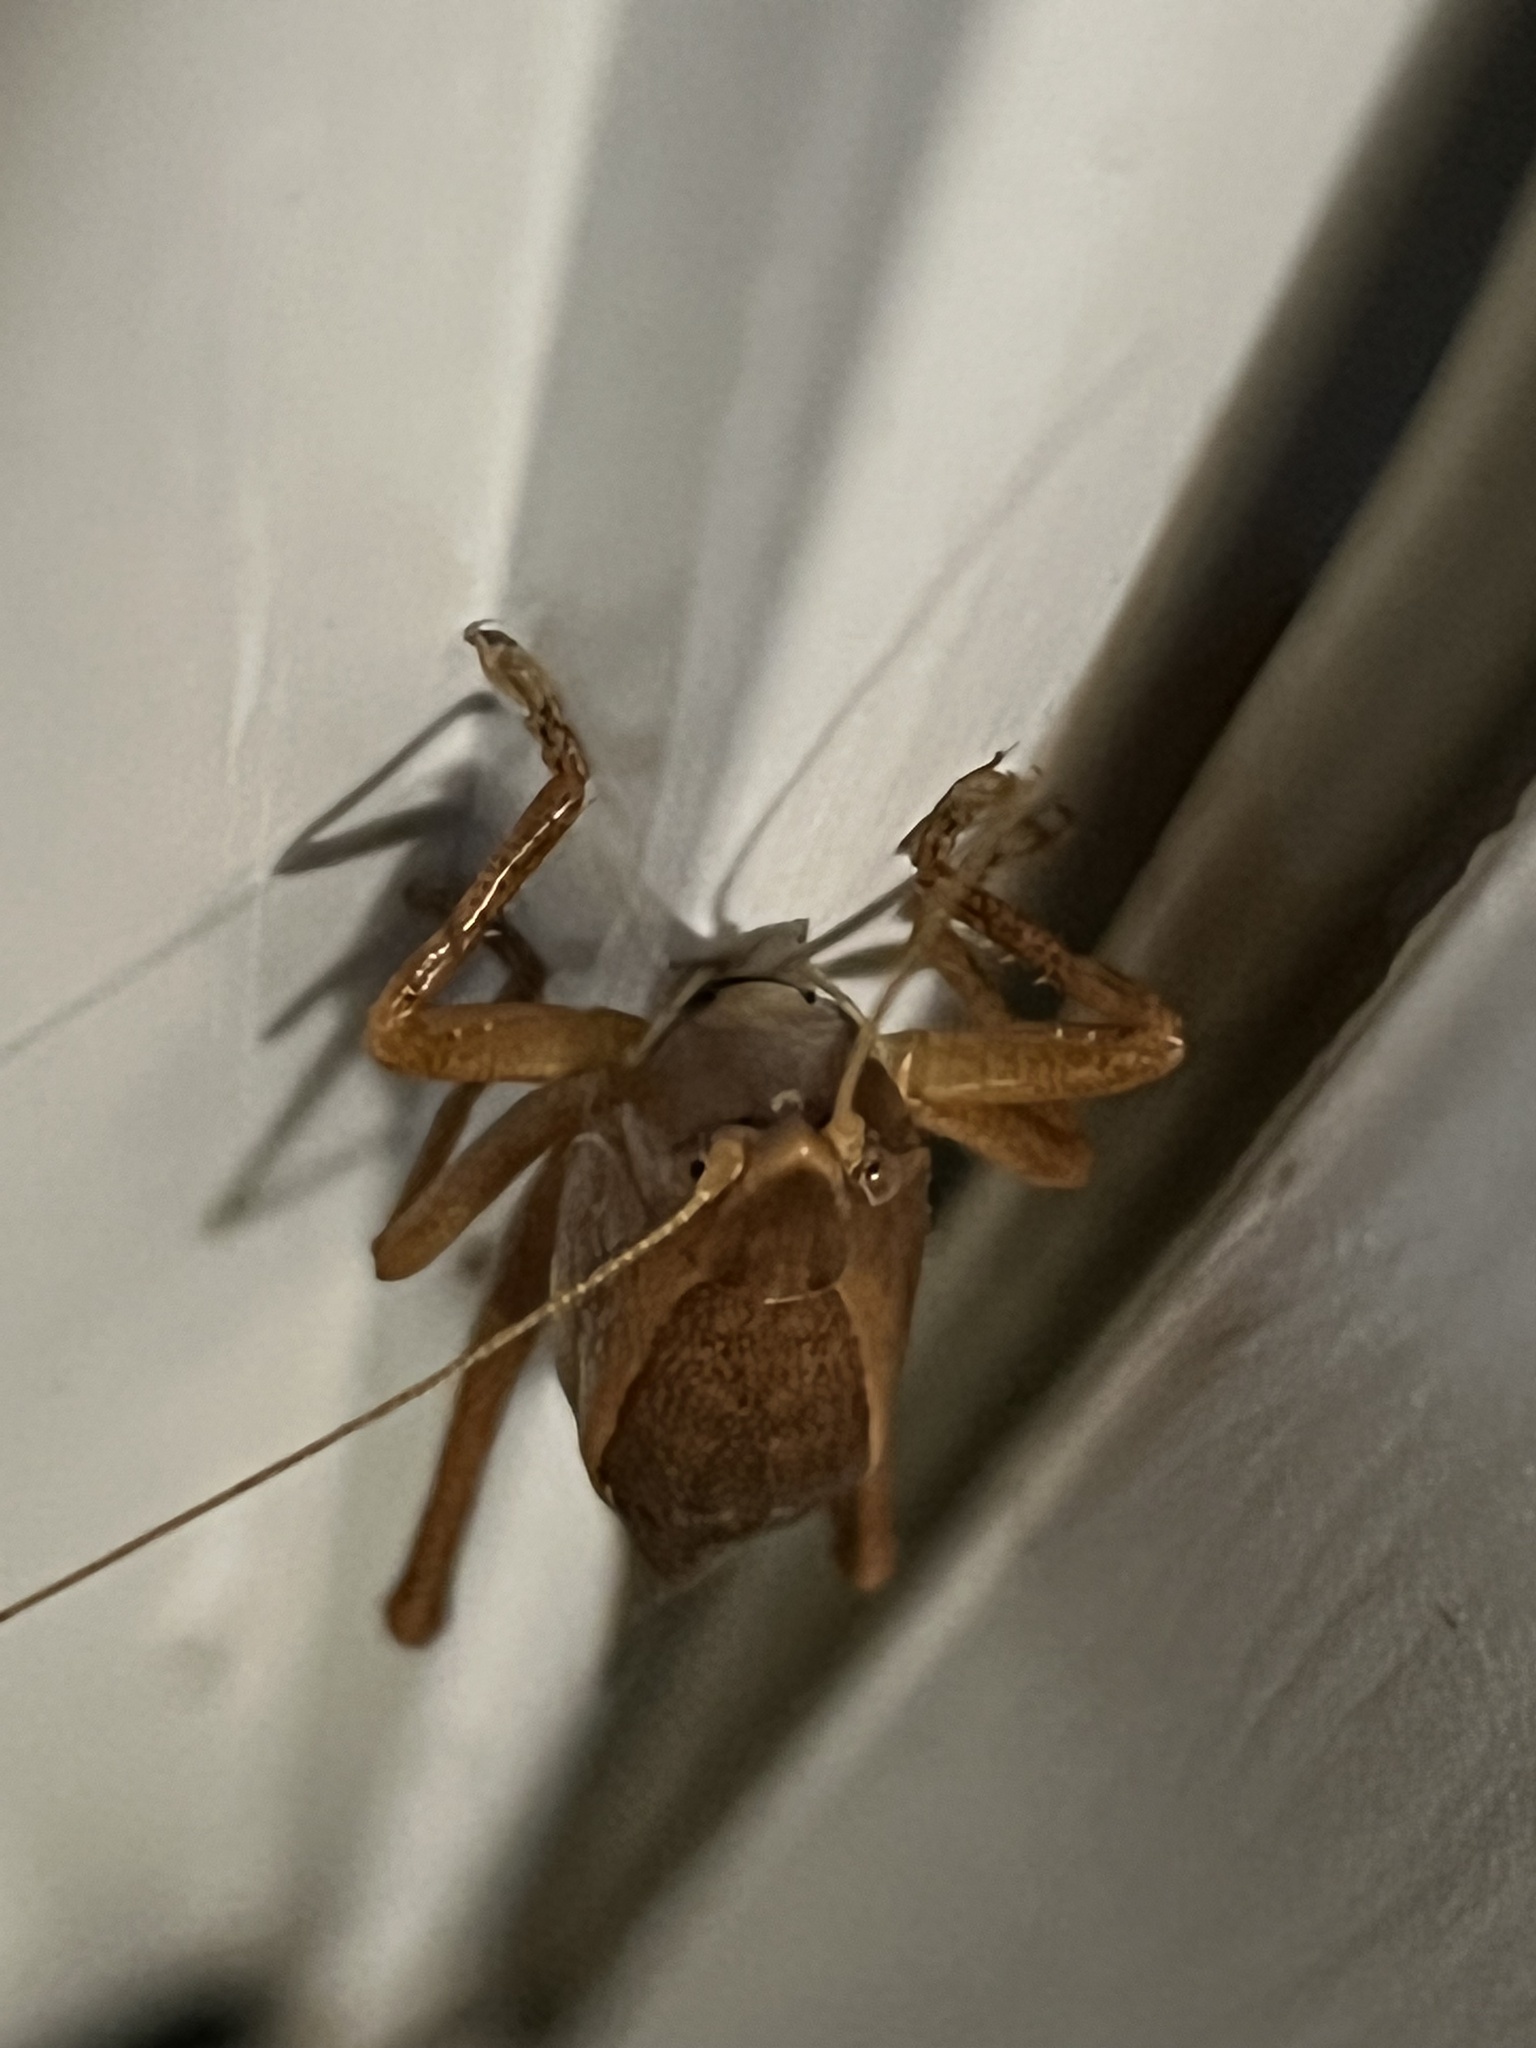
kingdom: Animalia
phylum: Arthropoda
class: Insecta
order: Orthoptera
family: Tettigoniidae
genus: Pyrgocorypha
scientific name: Pyrgocorypha uncinata
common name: Hook-faced conehead
